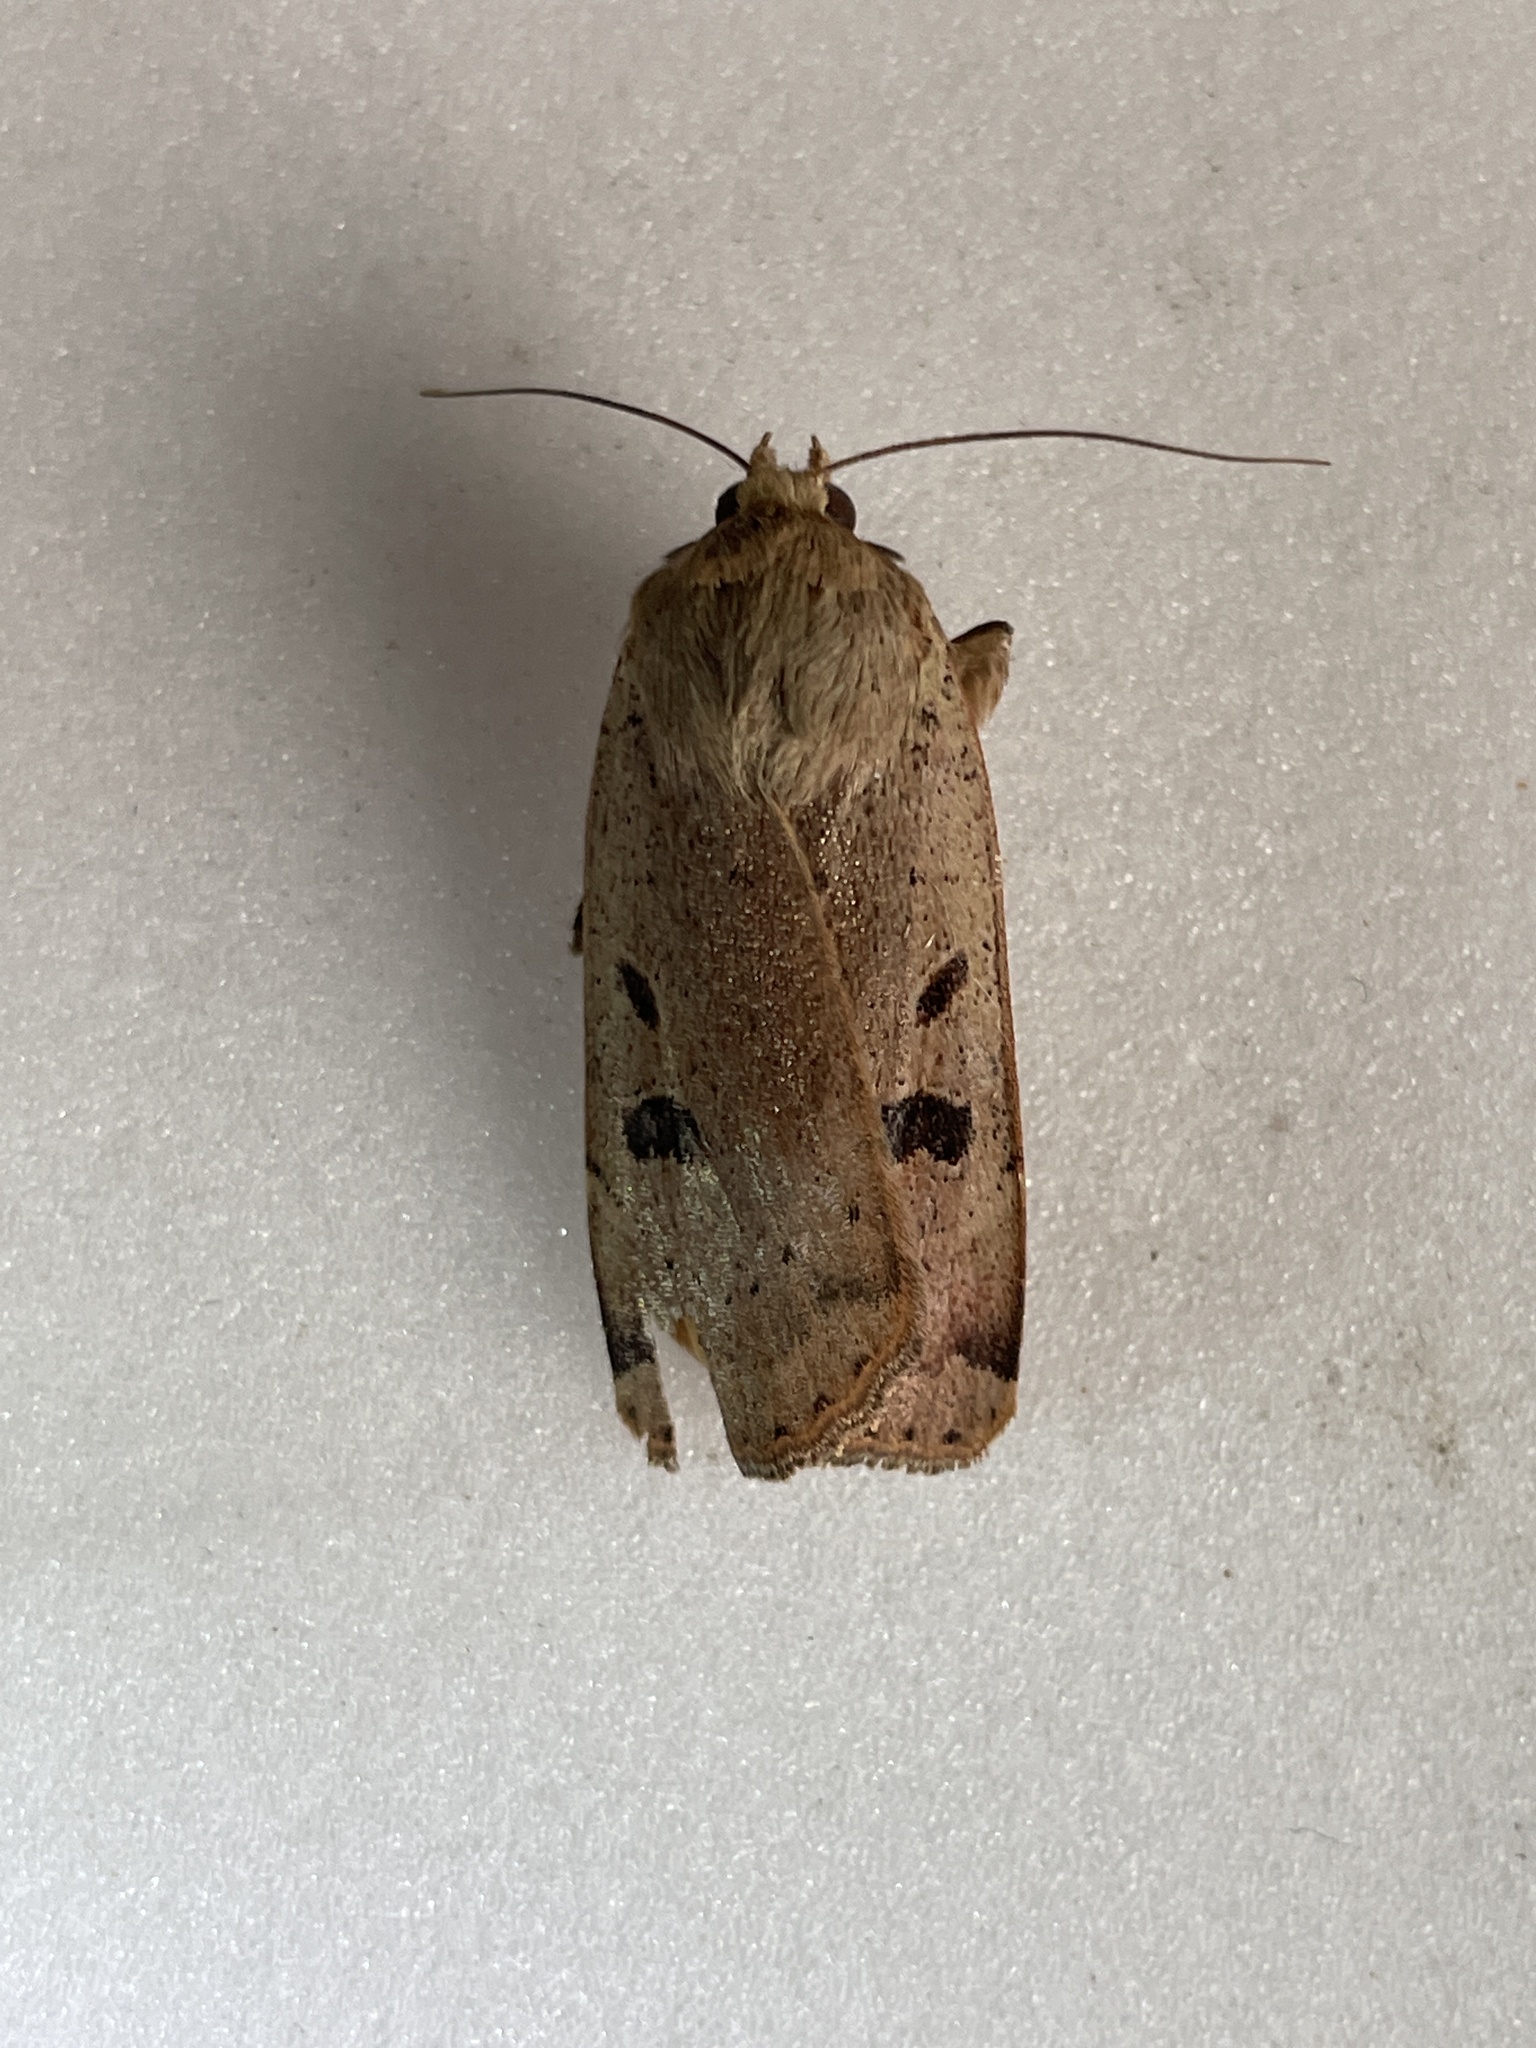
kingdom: Animalia
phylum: Arthropoda
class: Insecta
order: Lepidoptera
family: Noctuidae
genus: Noctua
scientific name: Noctua comes
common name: Lesser yellow underwing
